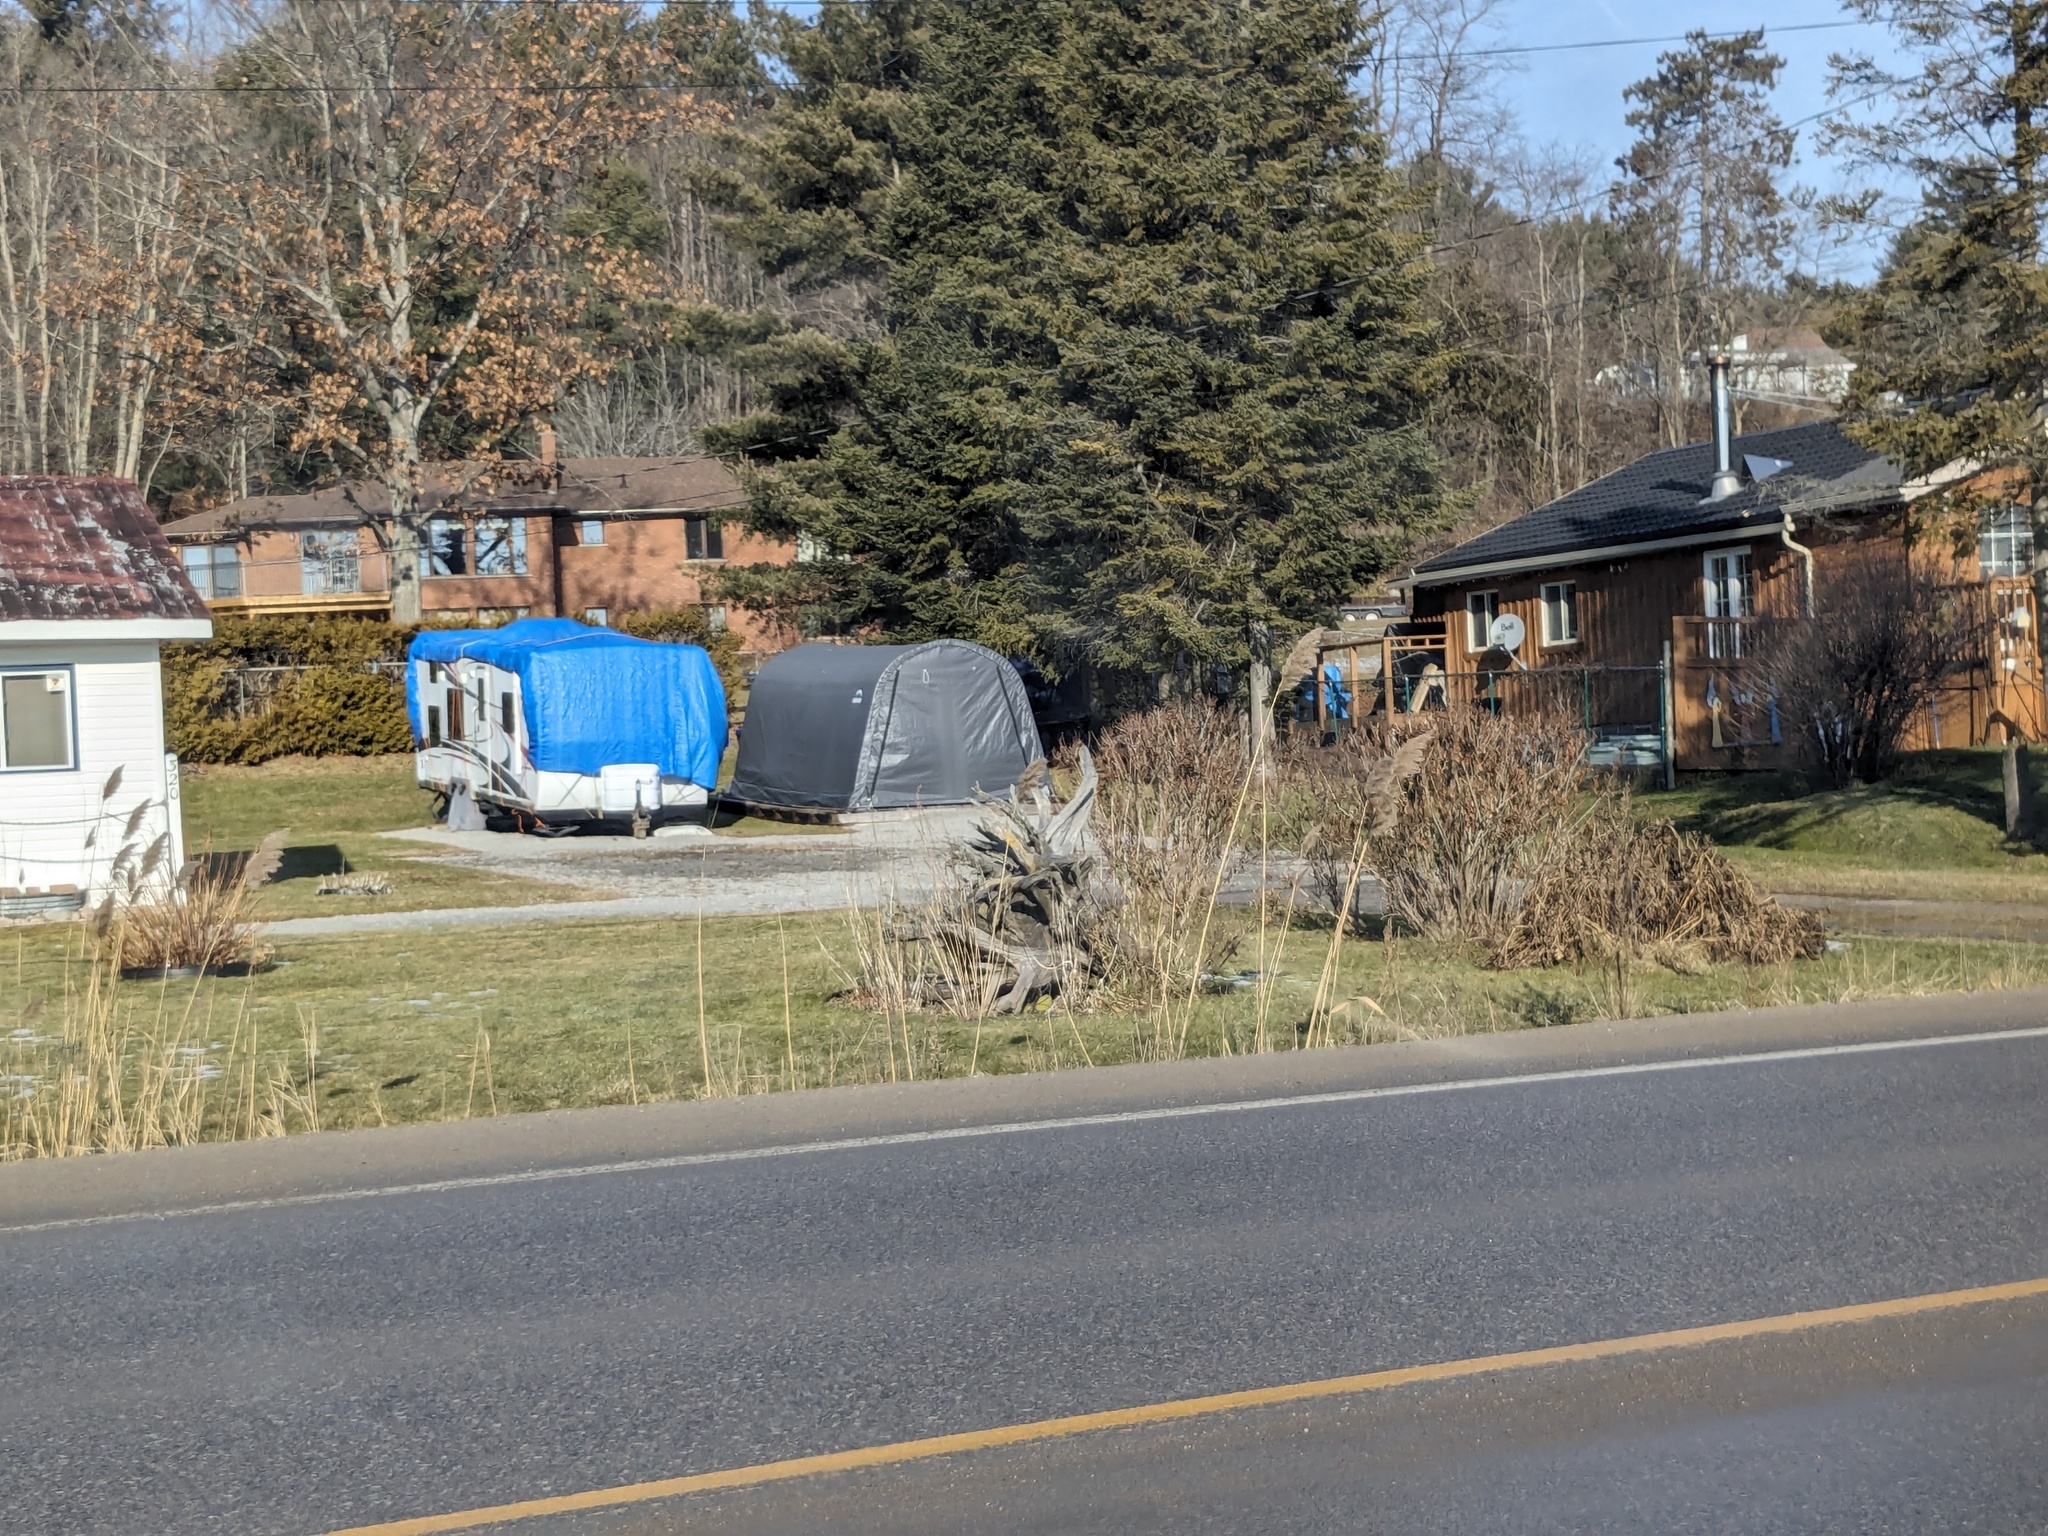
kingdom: Plantae
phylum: Tracheophyta
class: Liliopsida
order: Poales
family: Poaceae
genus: Phragmites
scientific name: Phragmites australis
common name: Common reed
